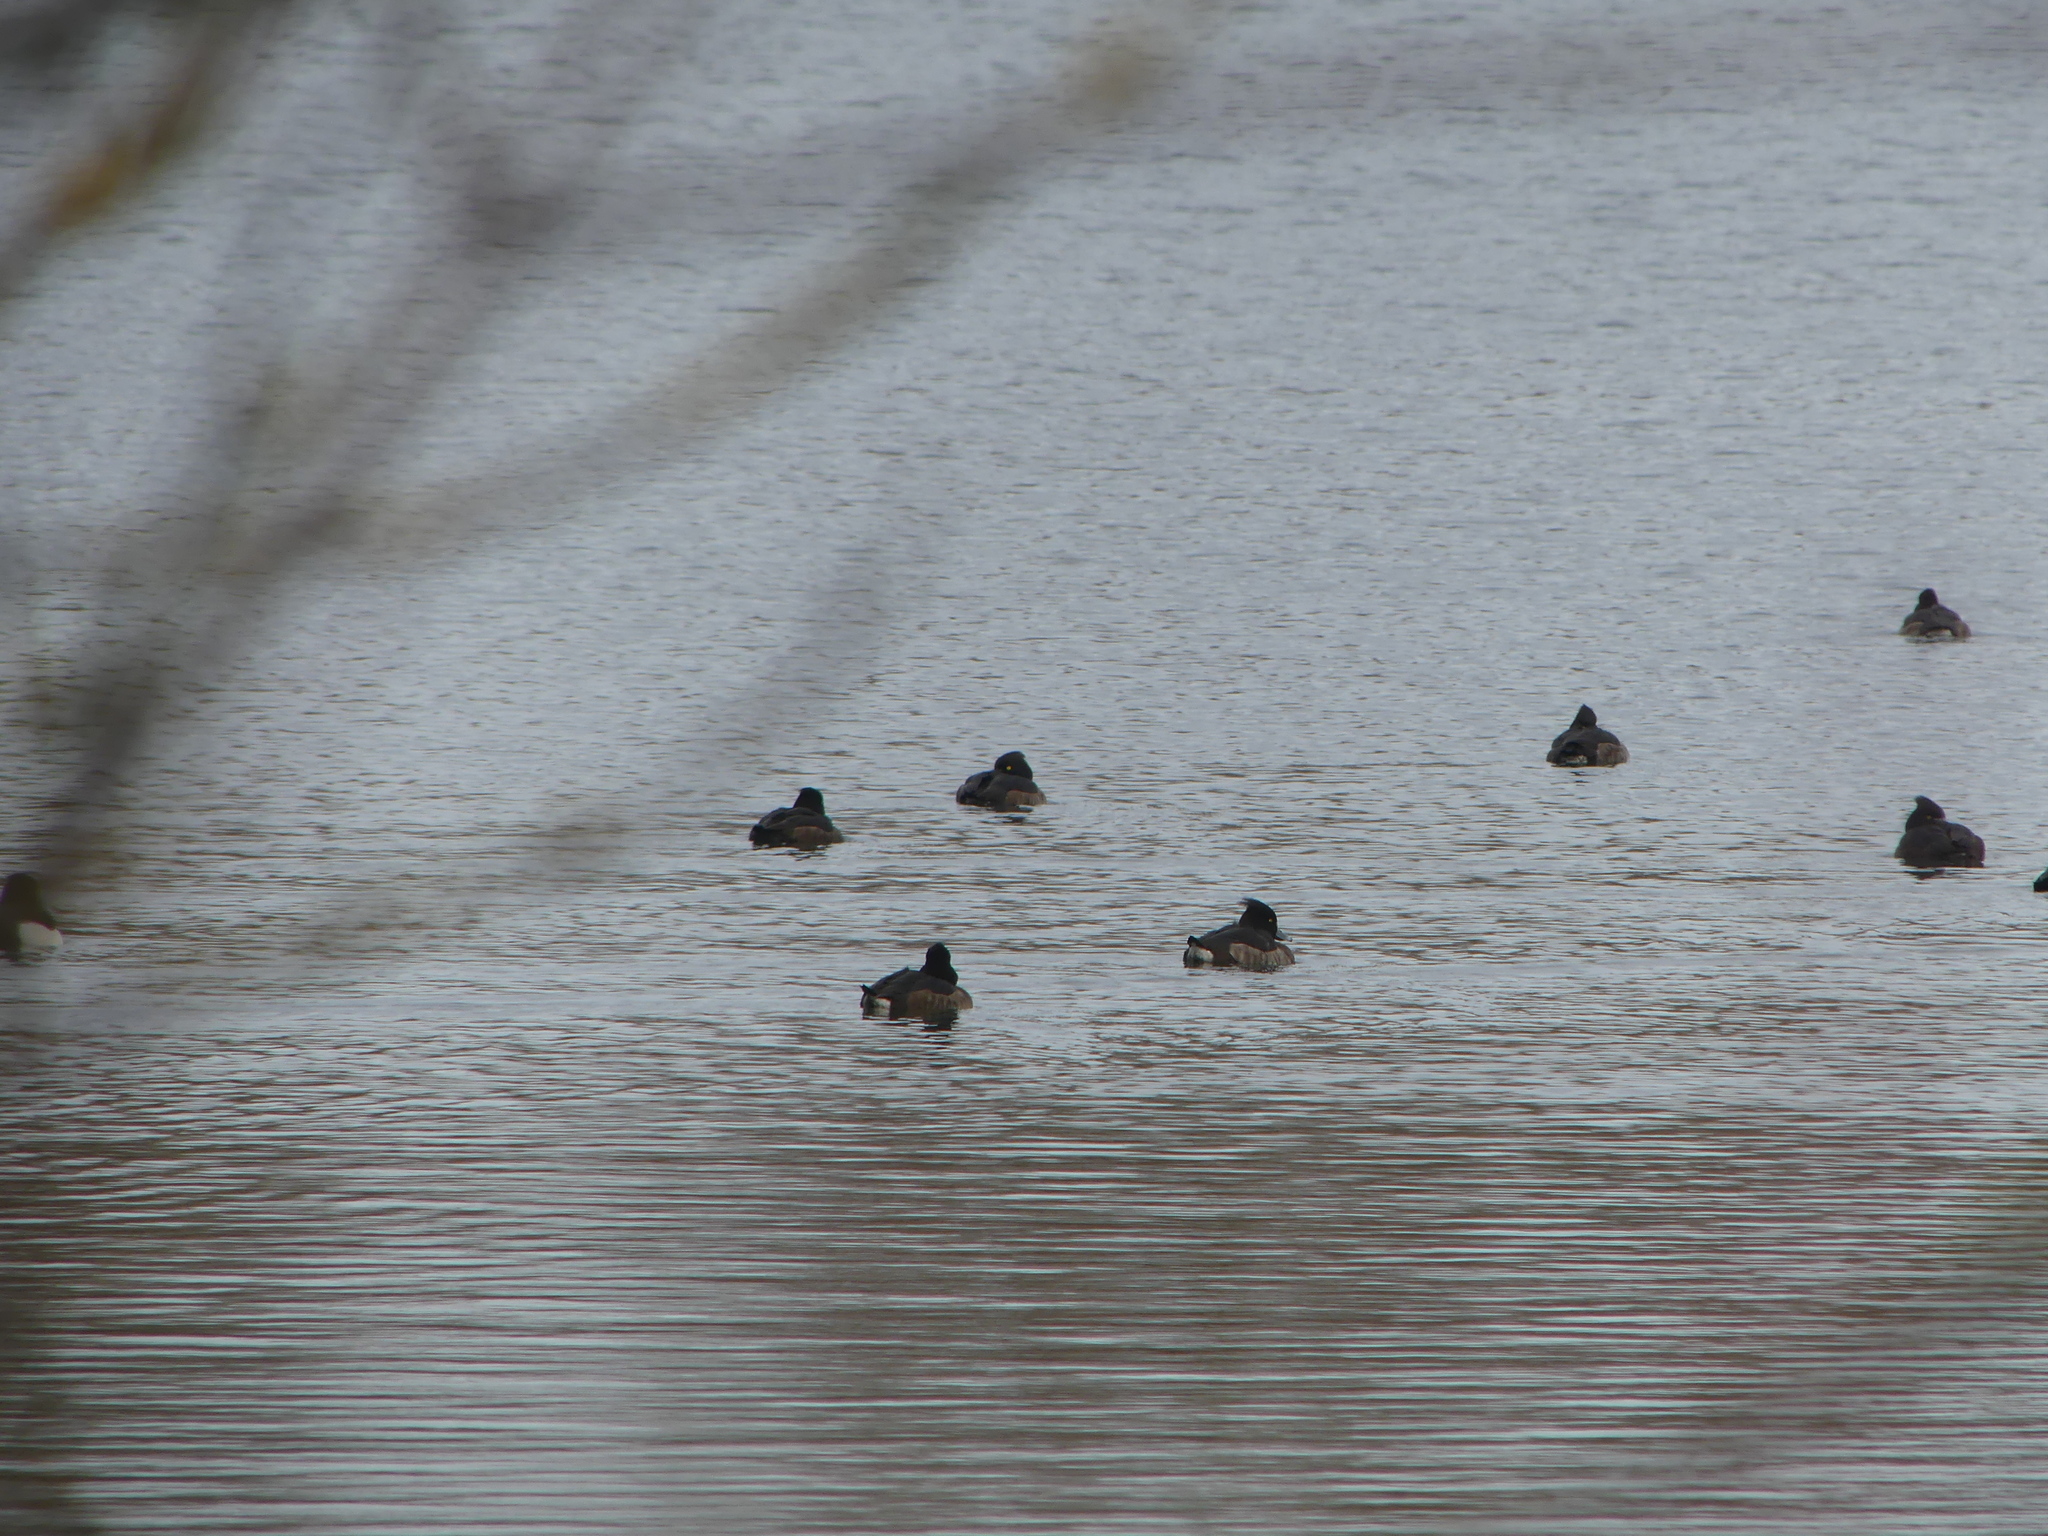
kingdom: Animalia
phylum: Chordata
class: Aves
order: Anseriformes
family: Anatidae
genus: Aythya
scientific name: Aythya fuligula
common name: Tufted duck
